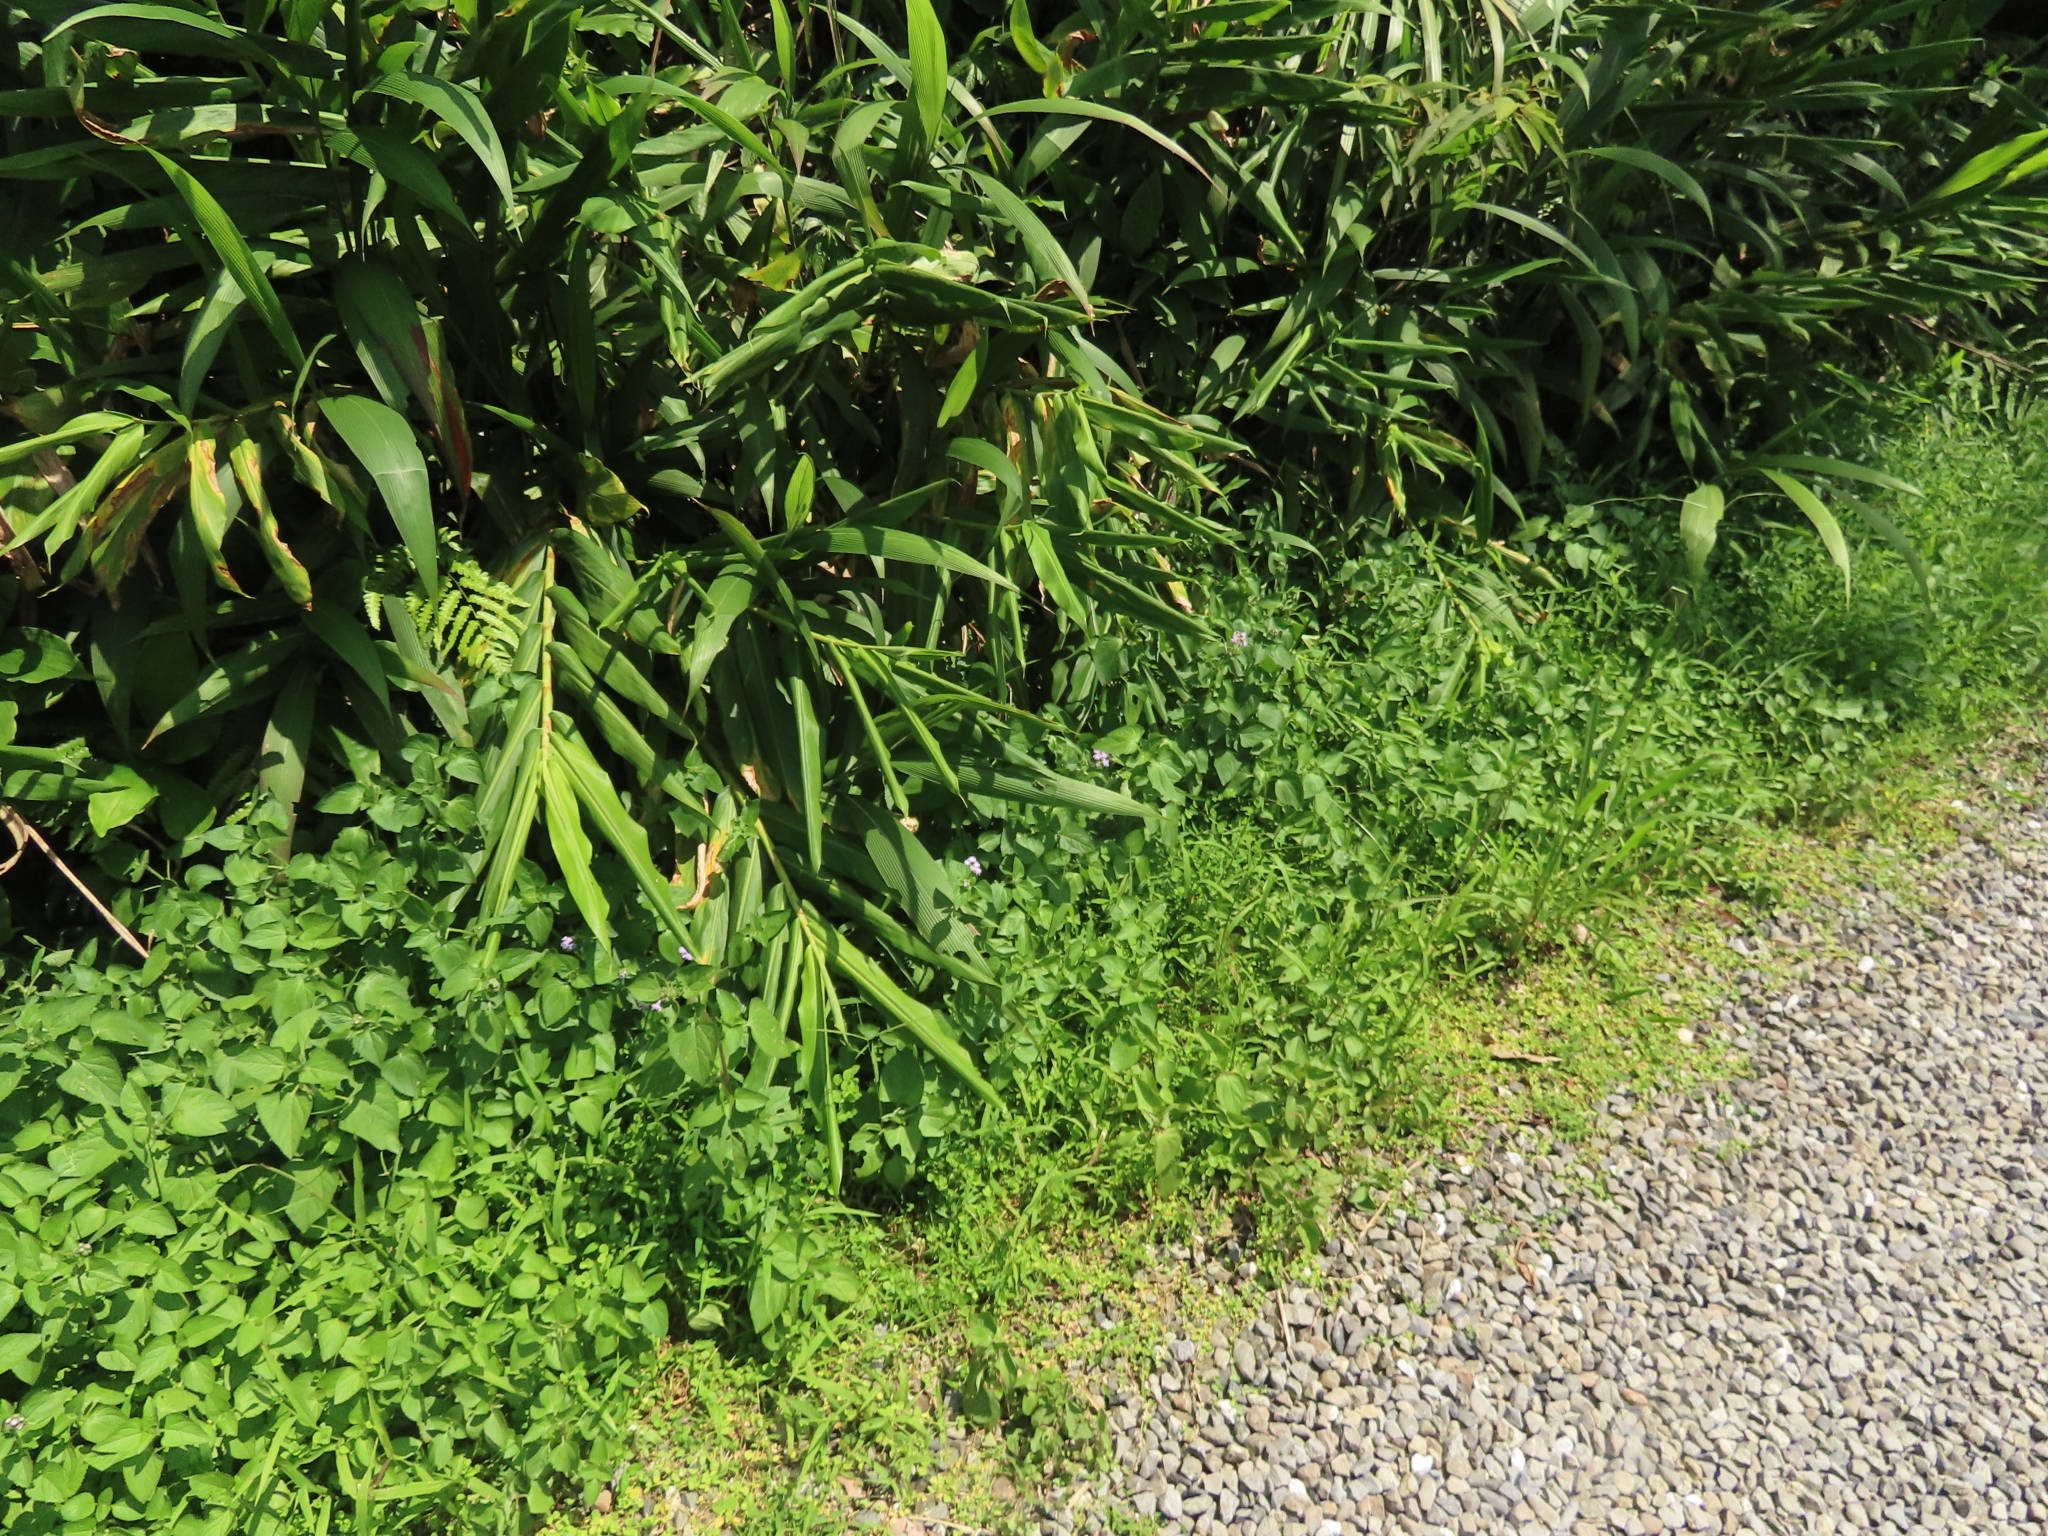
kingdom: Animalia
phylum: Arthropoda
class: Insecta
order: Hemiptera
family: Cicadidae
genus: Mogannia
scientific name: Mogannia hebes
